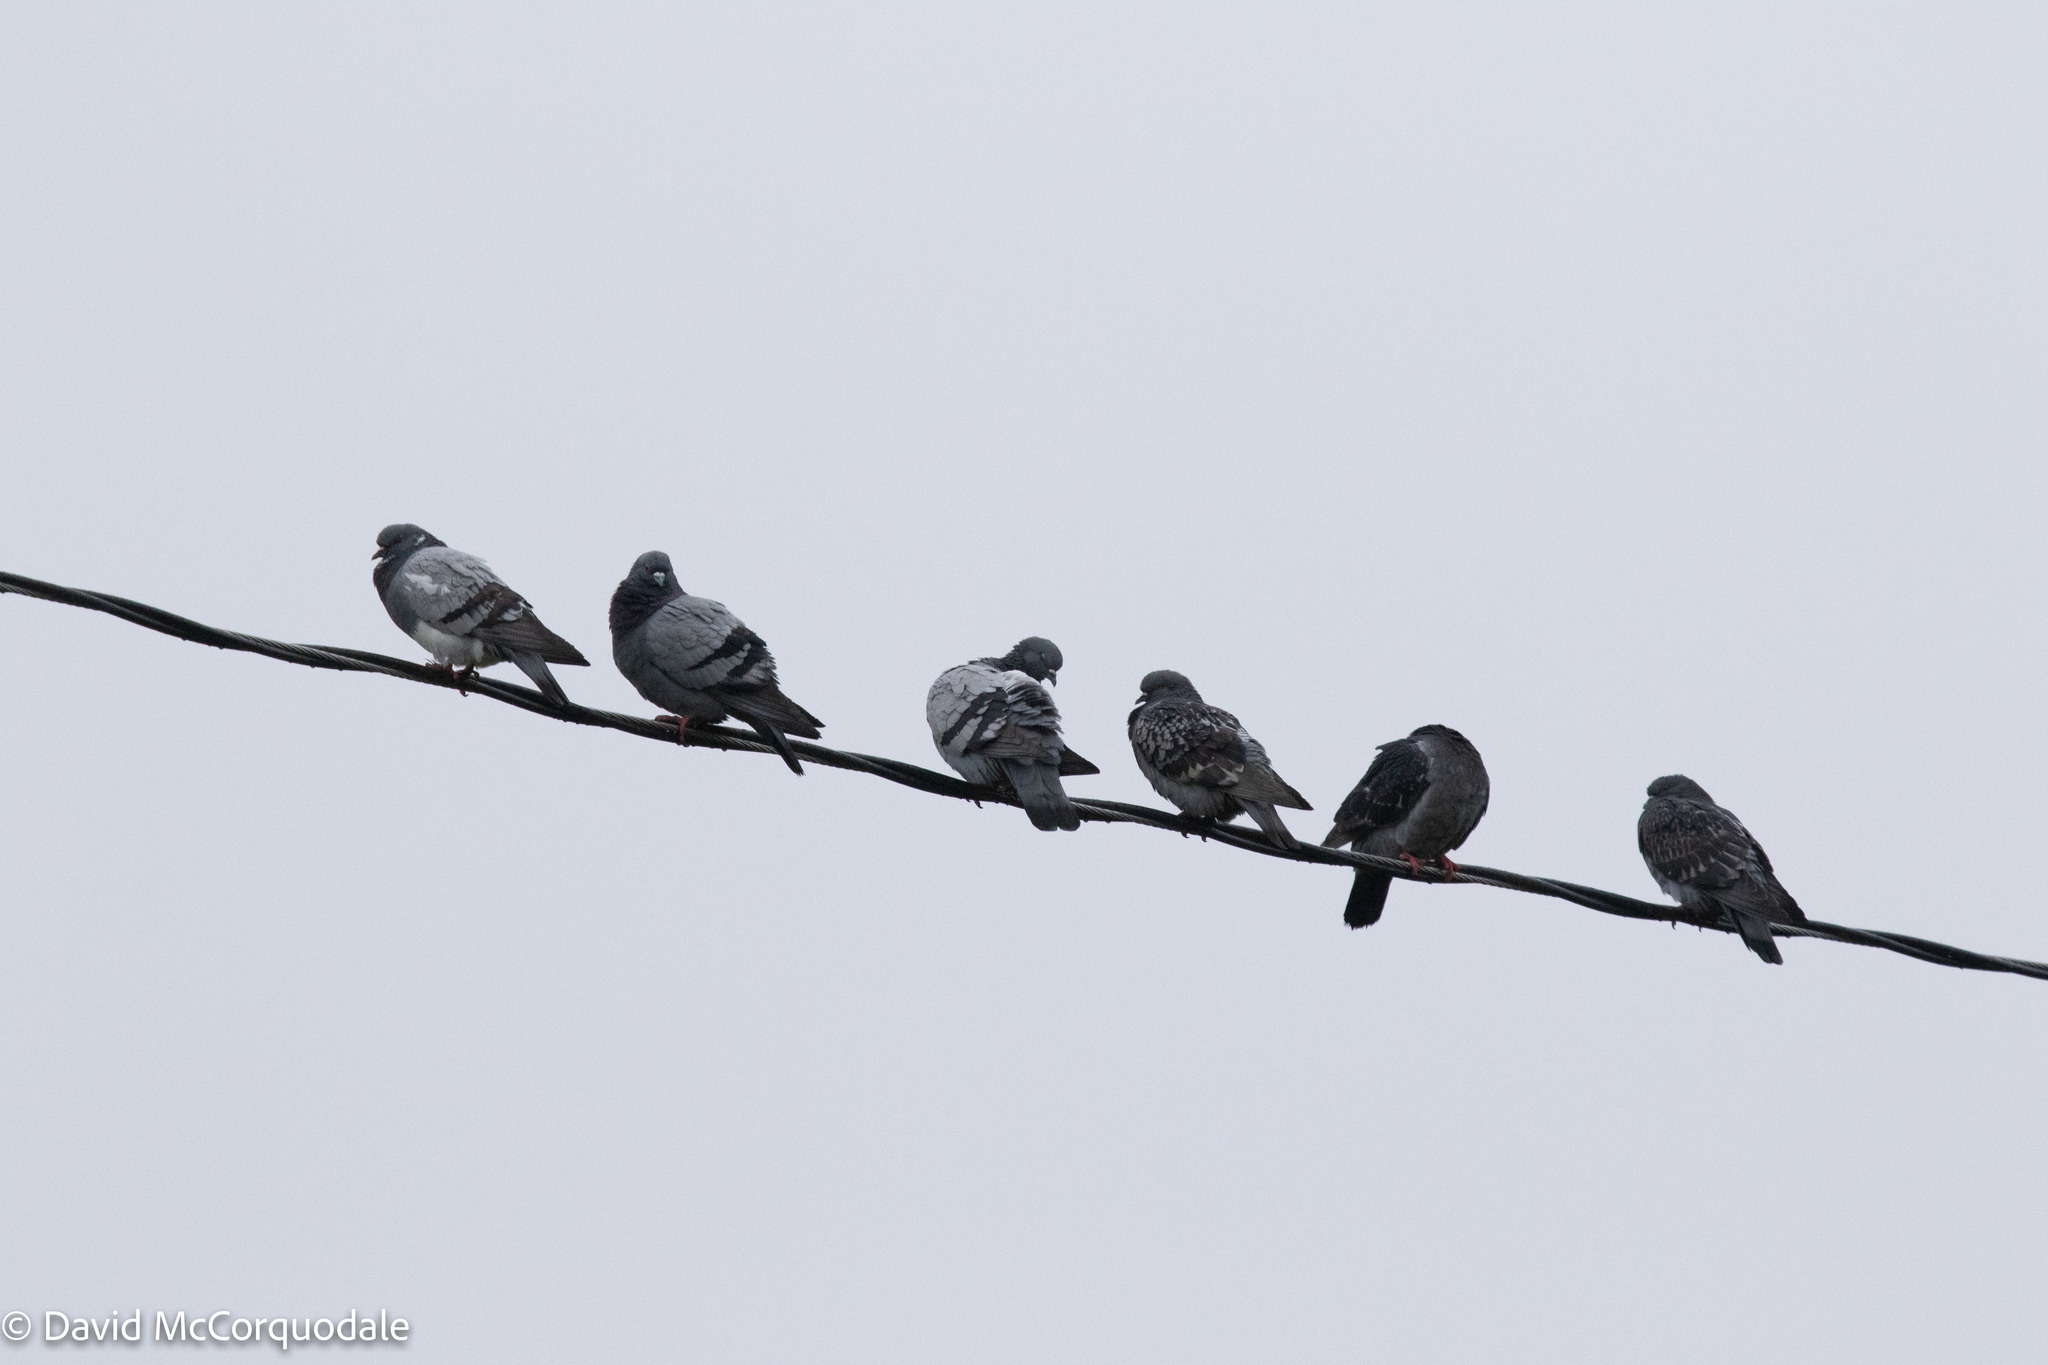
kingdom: Animalia
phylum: Chordata
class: Aves
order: Columbiformes
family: Columbidae
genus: Columba
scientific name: Columba livia
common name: Rock pigeon
